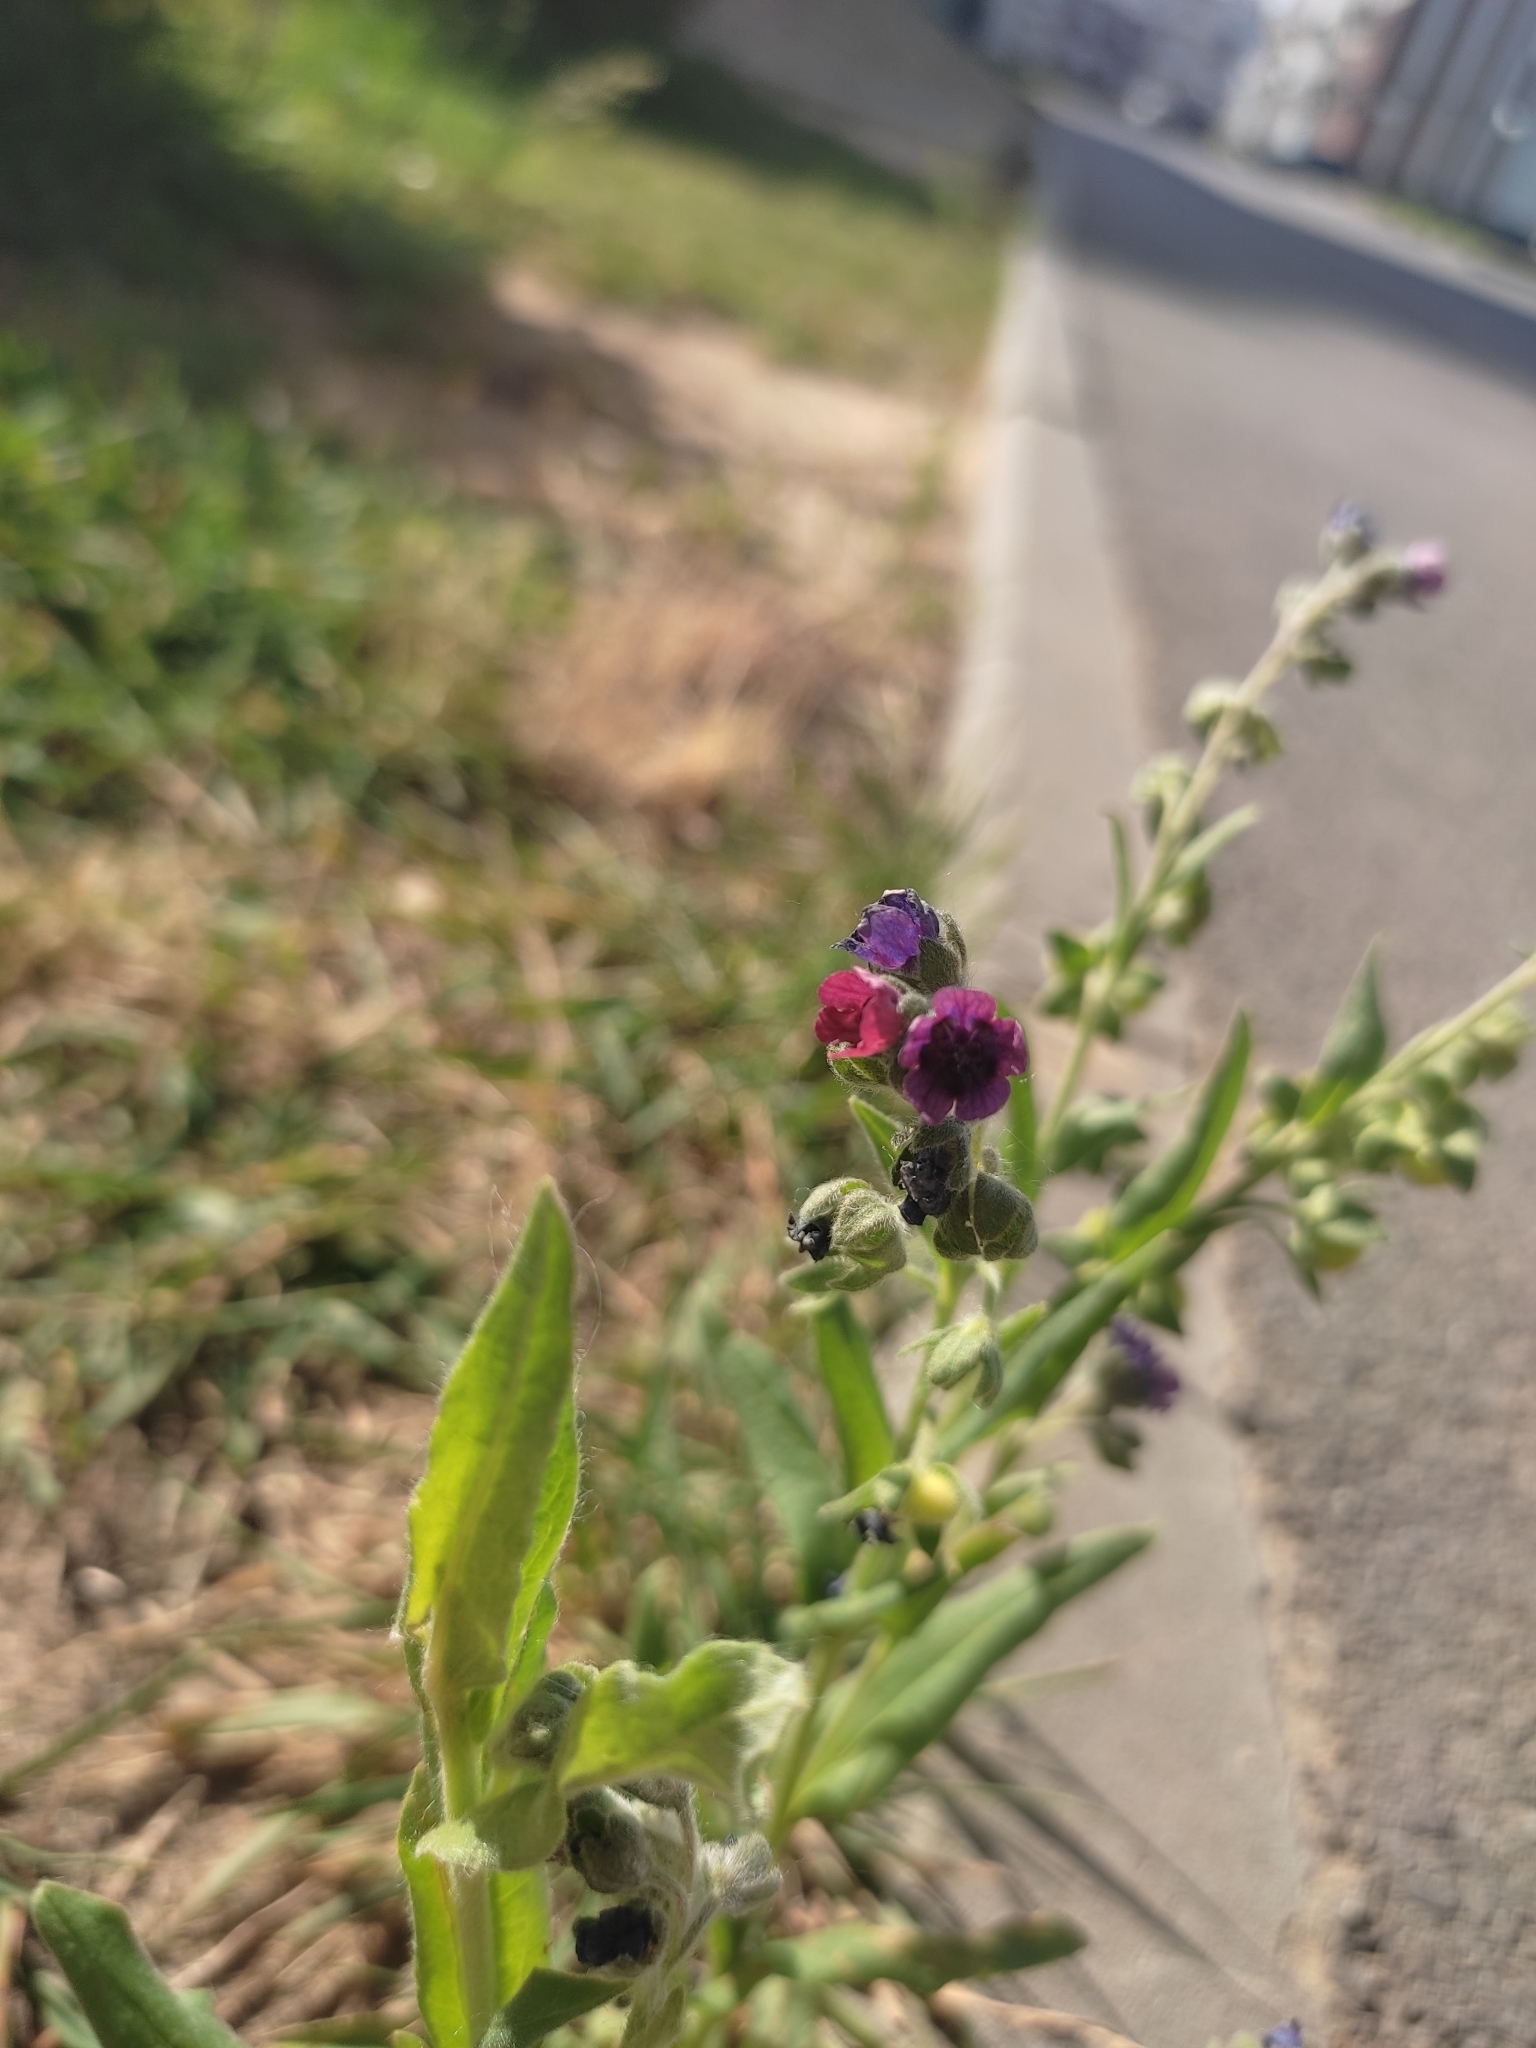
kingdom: Plantae
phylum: Tracheophyta
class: Magnoliopsida
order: Boraginales
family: Boraginaceae
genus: Cynoglossum
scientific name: Cynoglossum officinale
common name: Hound's-tongue
